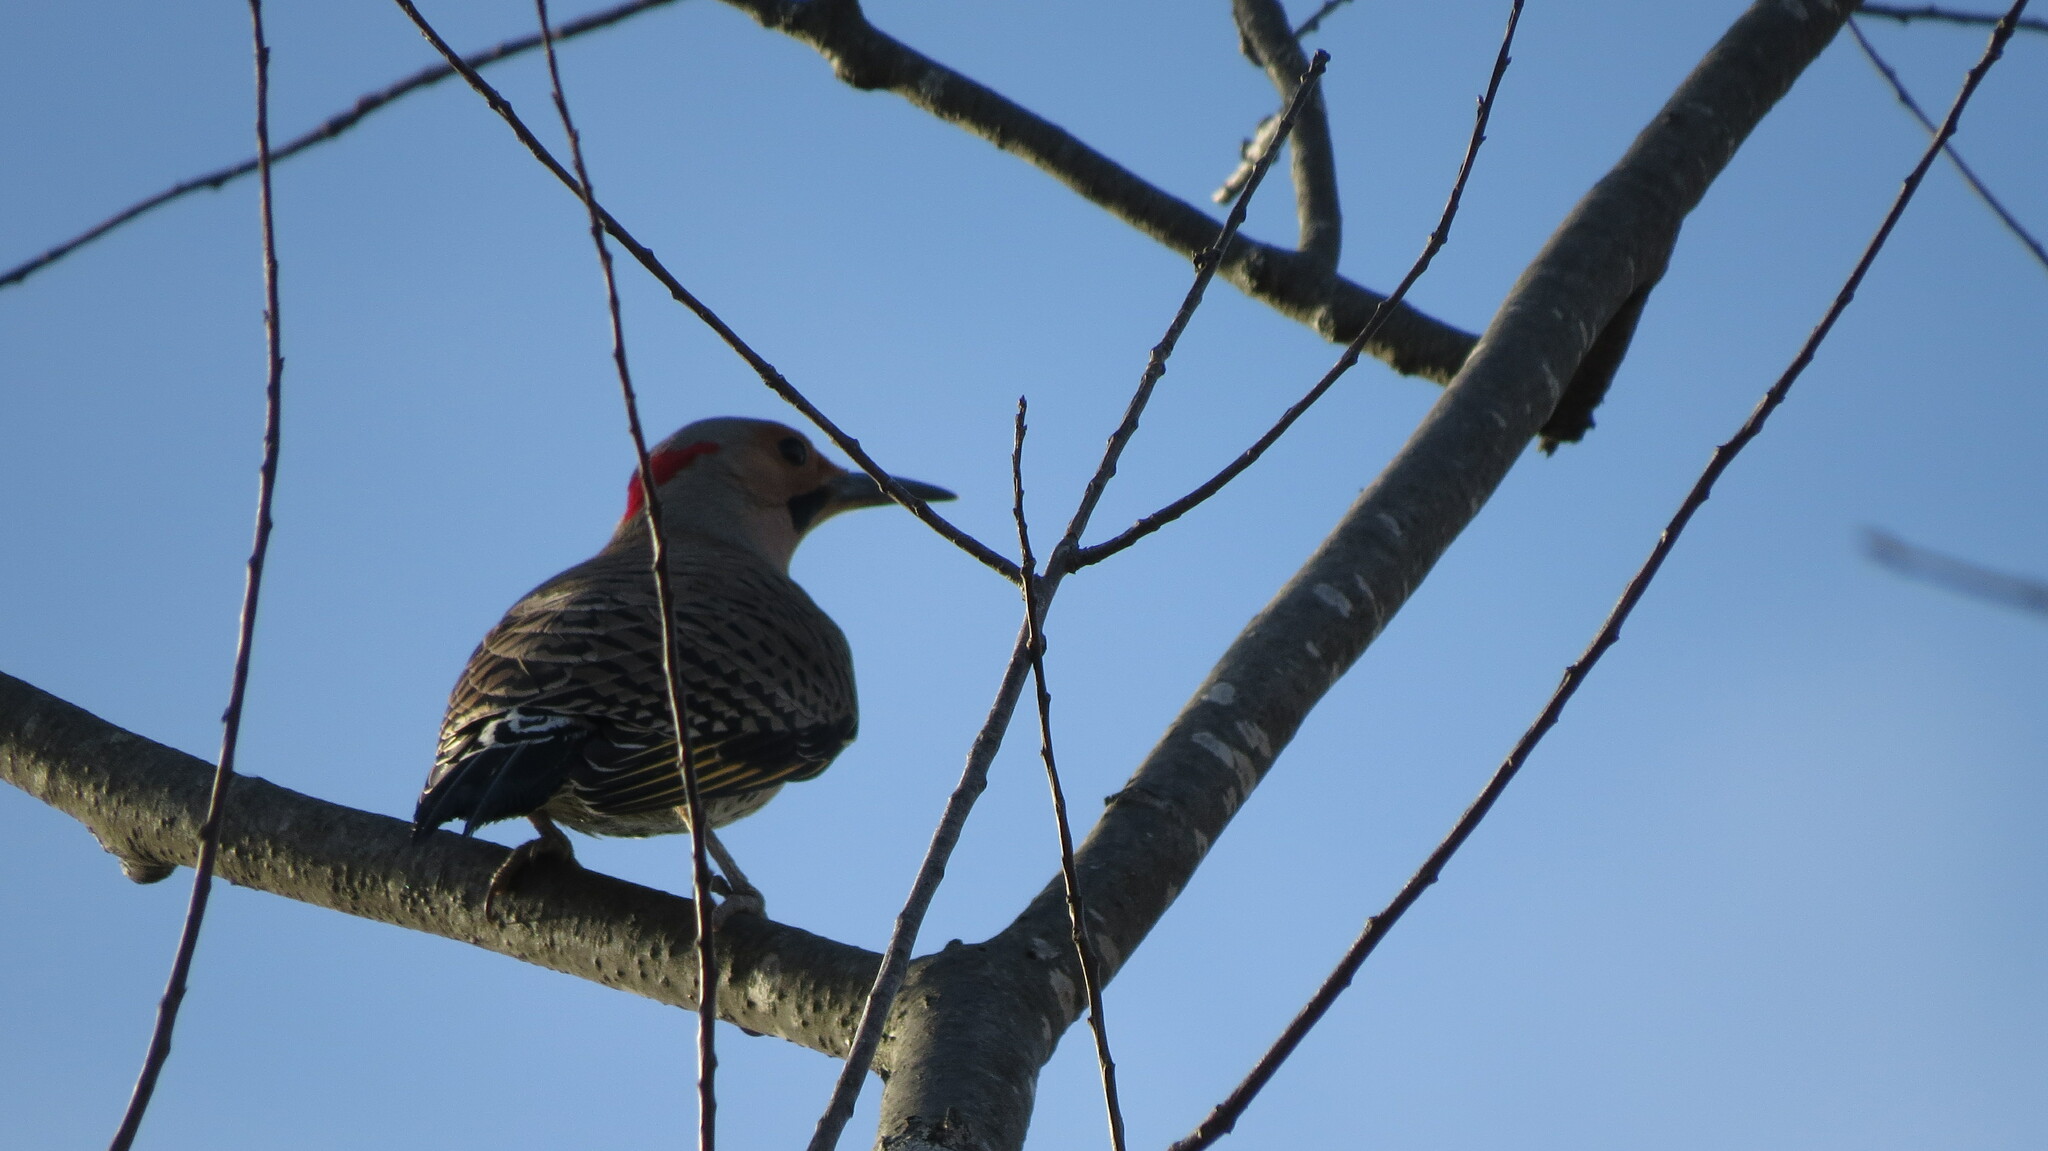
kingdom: Animalia
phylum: Chordata
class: Aves
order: Piciformes
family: Picidae
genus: Colaptes
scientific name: Colaptes auratus
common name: Northern flicker
